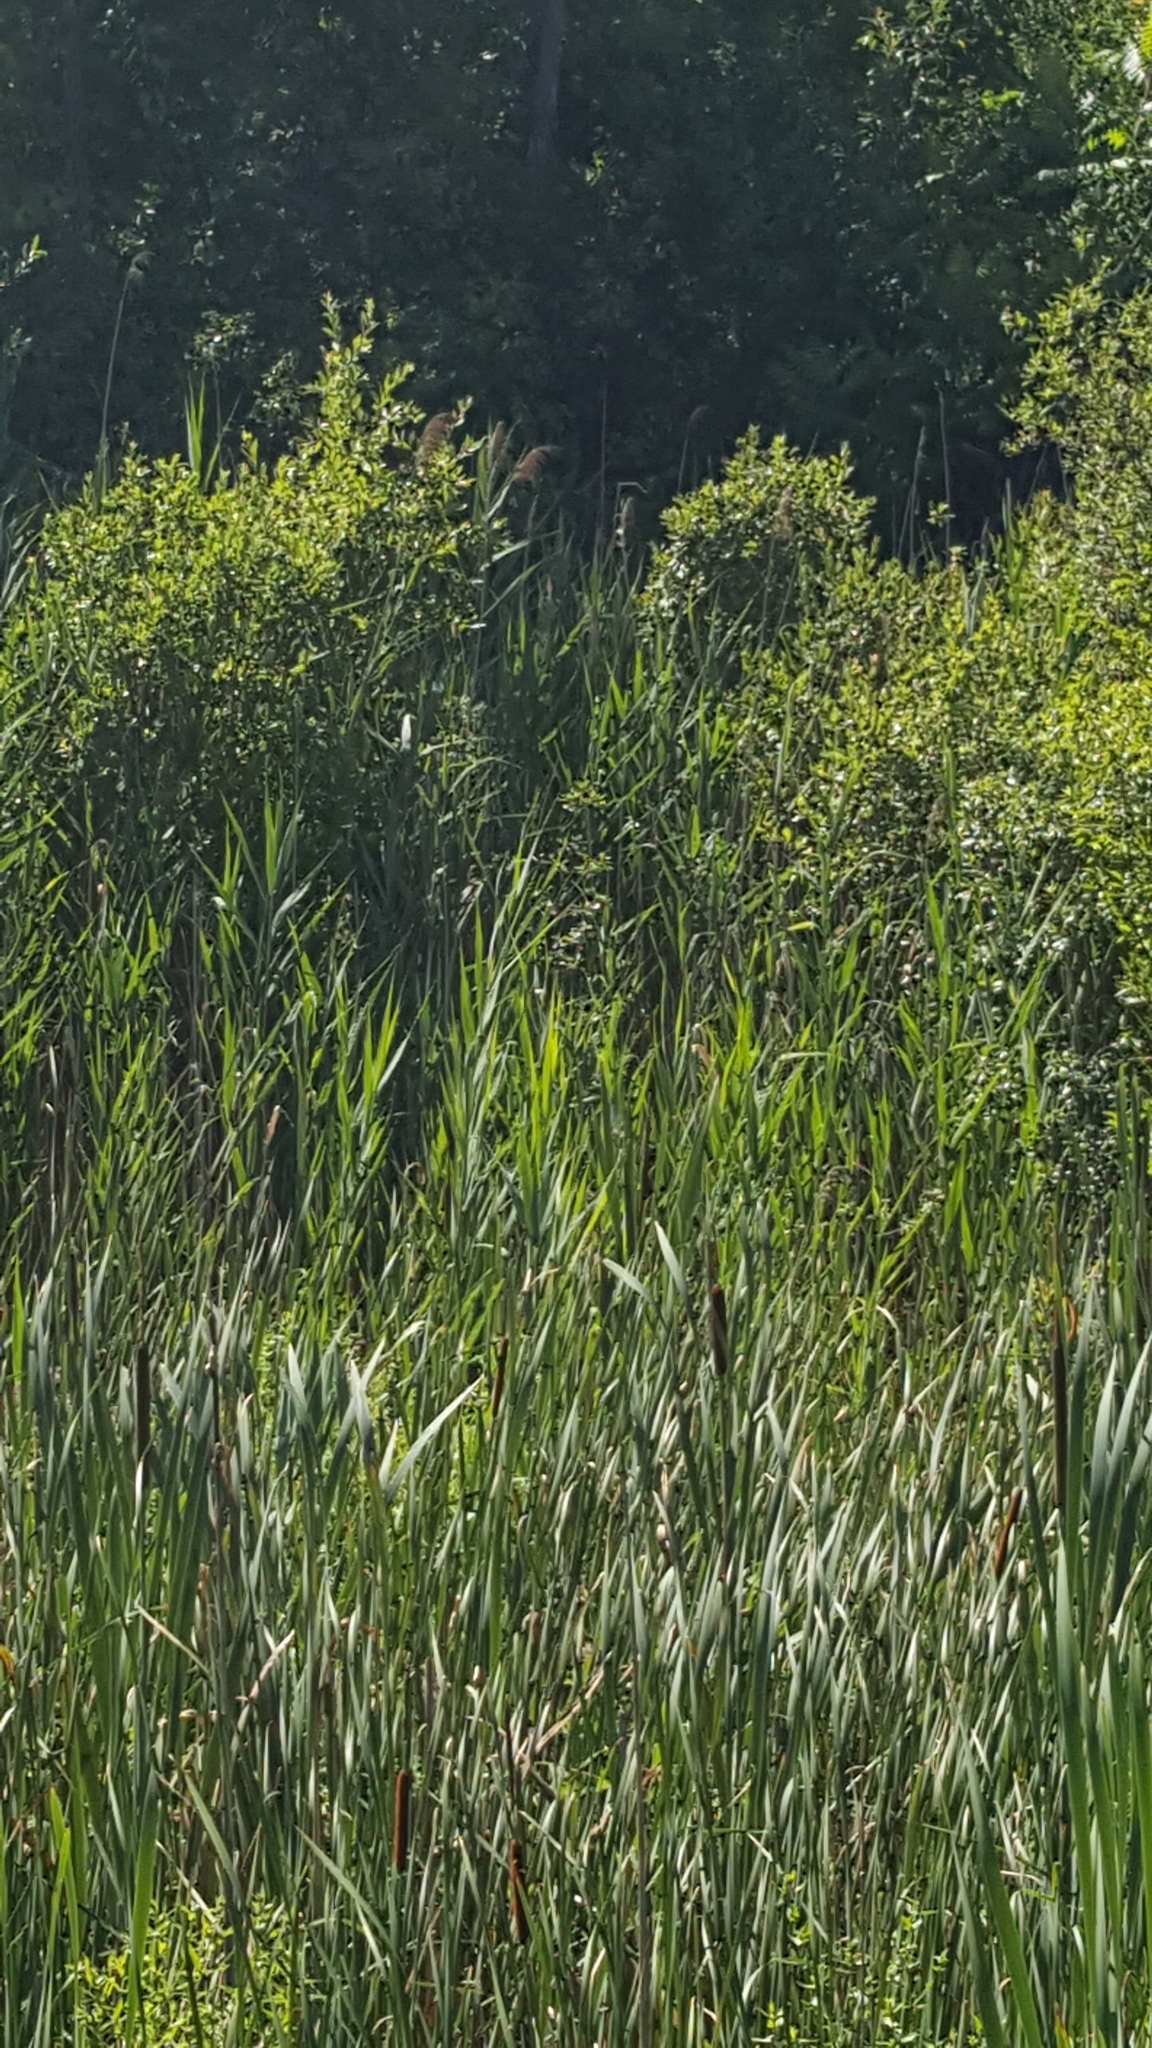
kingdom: Plantae
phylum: Tracheophyta
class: Liliopsida
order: Poales
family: Poaceae
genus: Phragmites
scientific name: Phragmites australis
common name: Common reed
